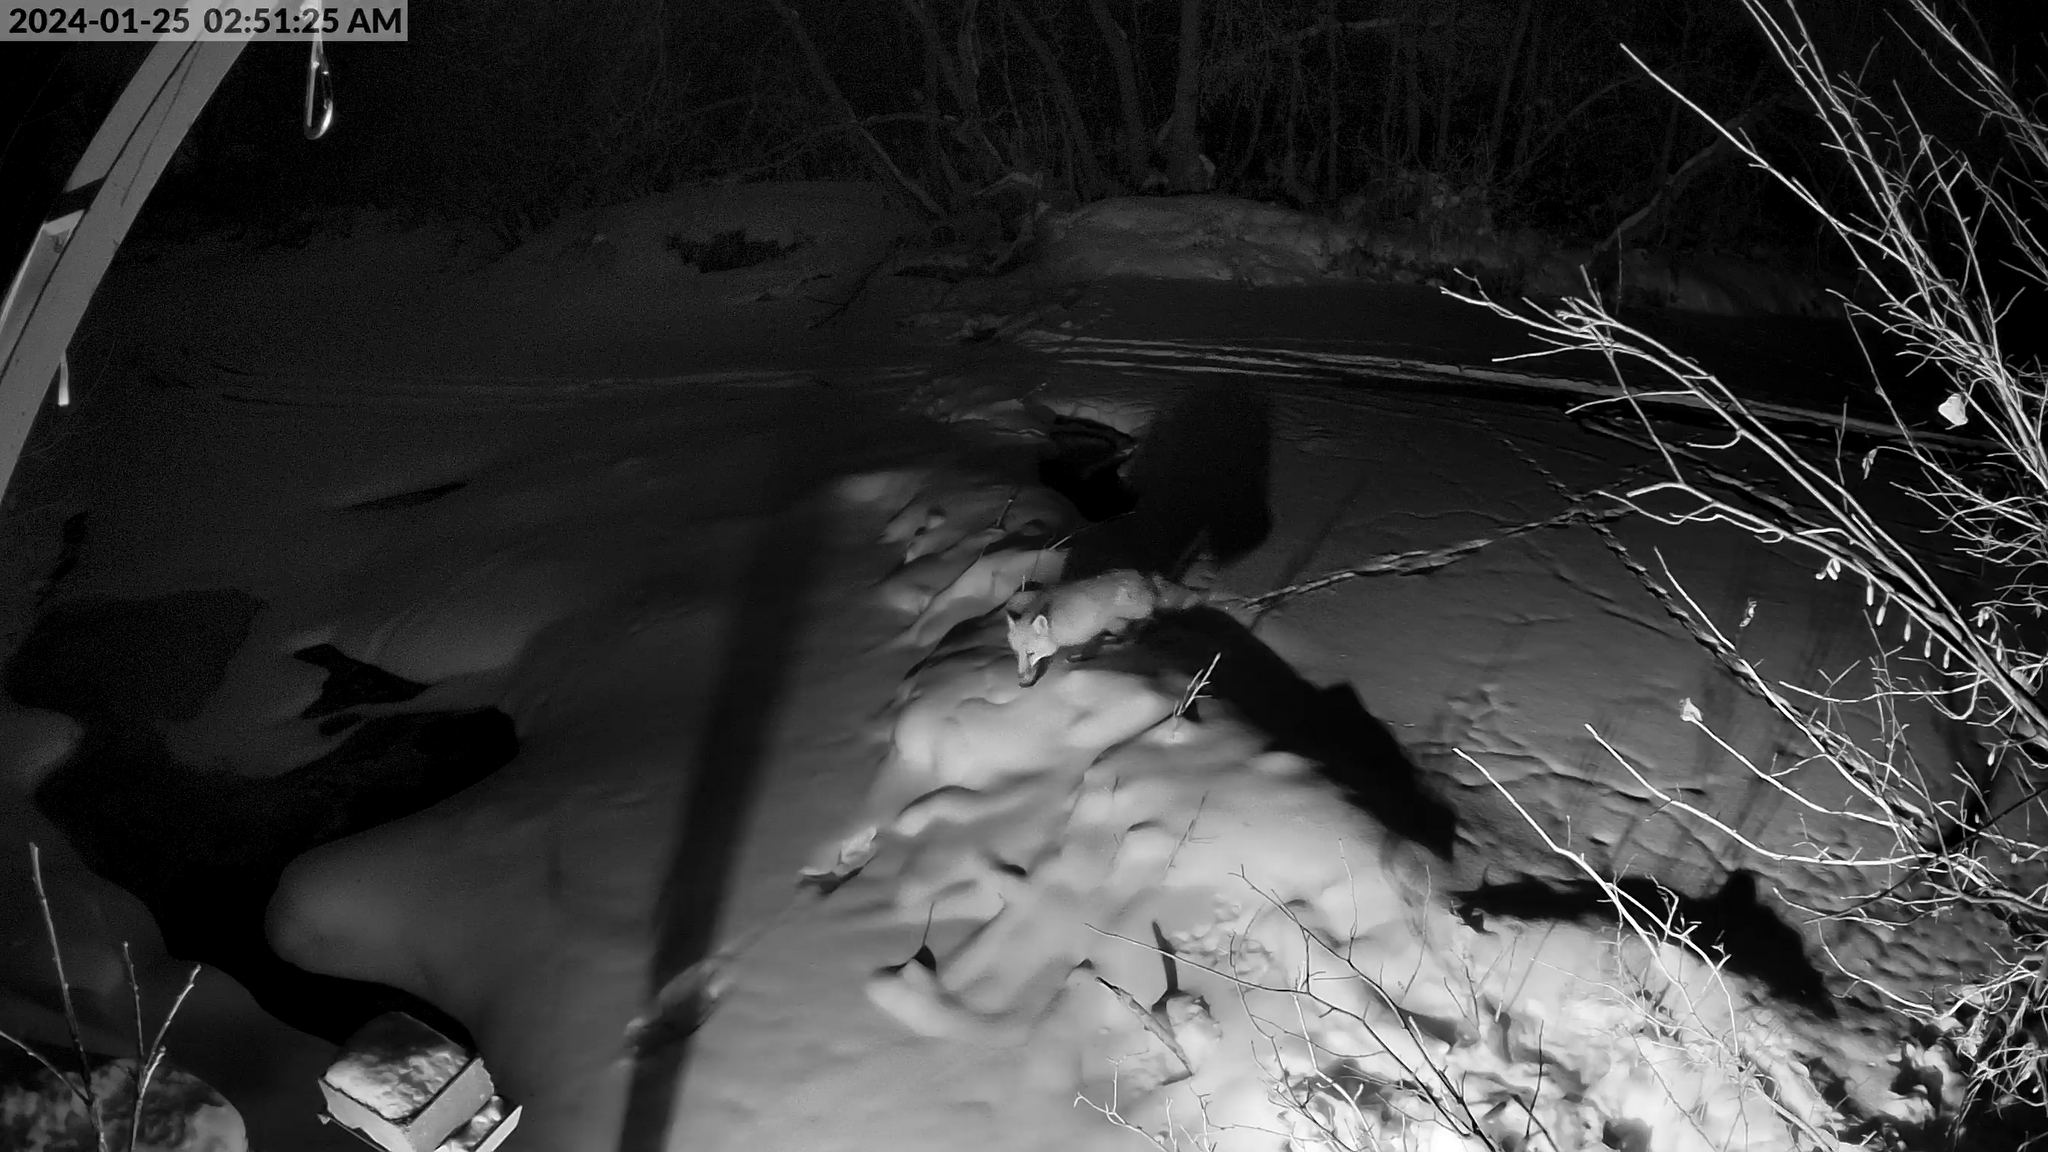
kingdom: Animalia
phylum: Chordata
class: Mammalia
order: Carnivora
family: Canidae
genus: Vulpes
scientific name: Vulpes vulpes
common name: Red fox
